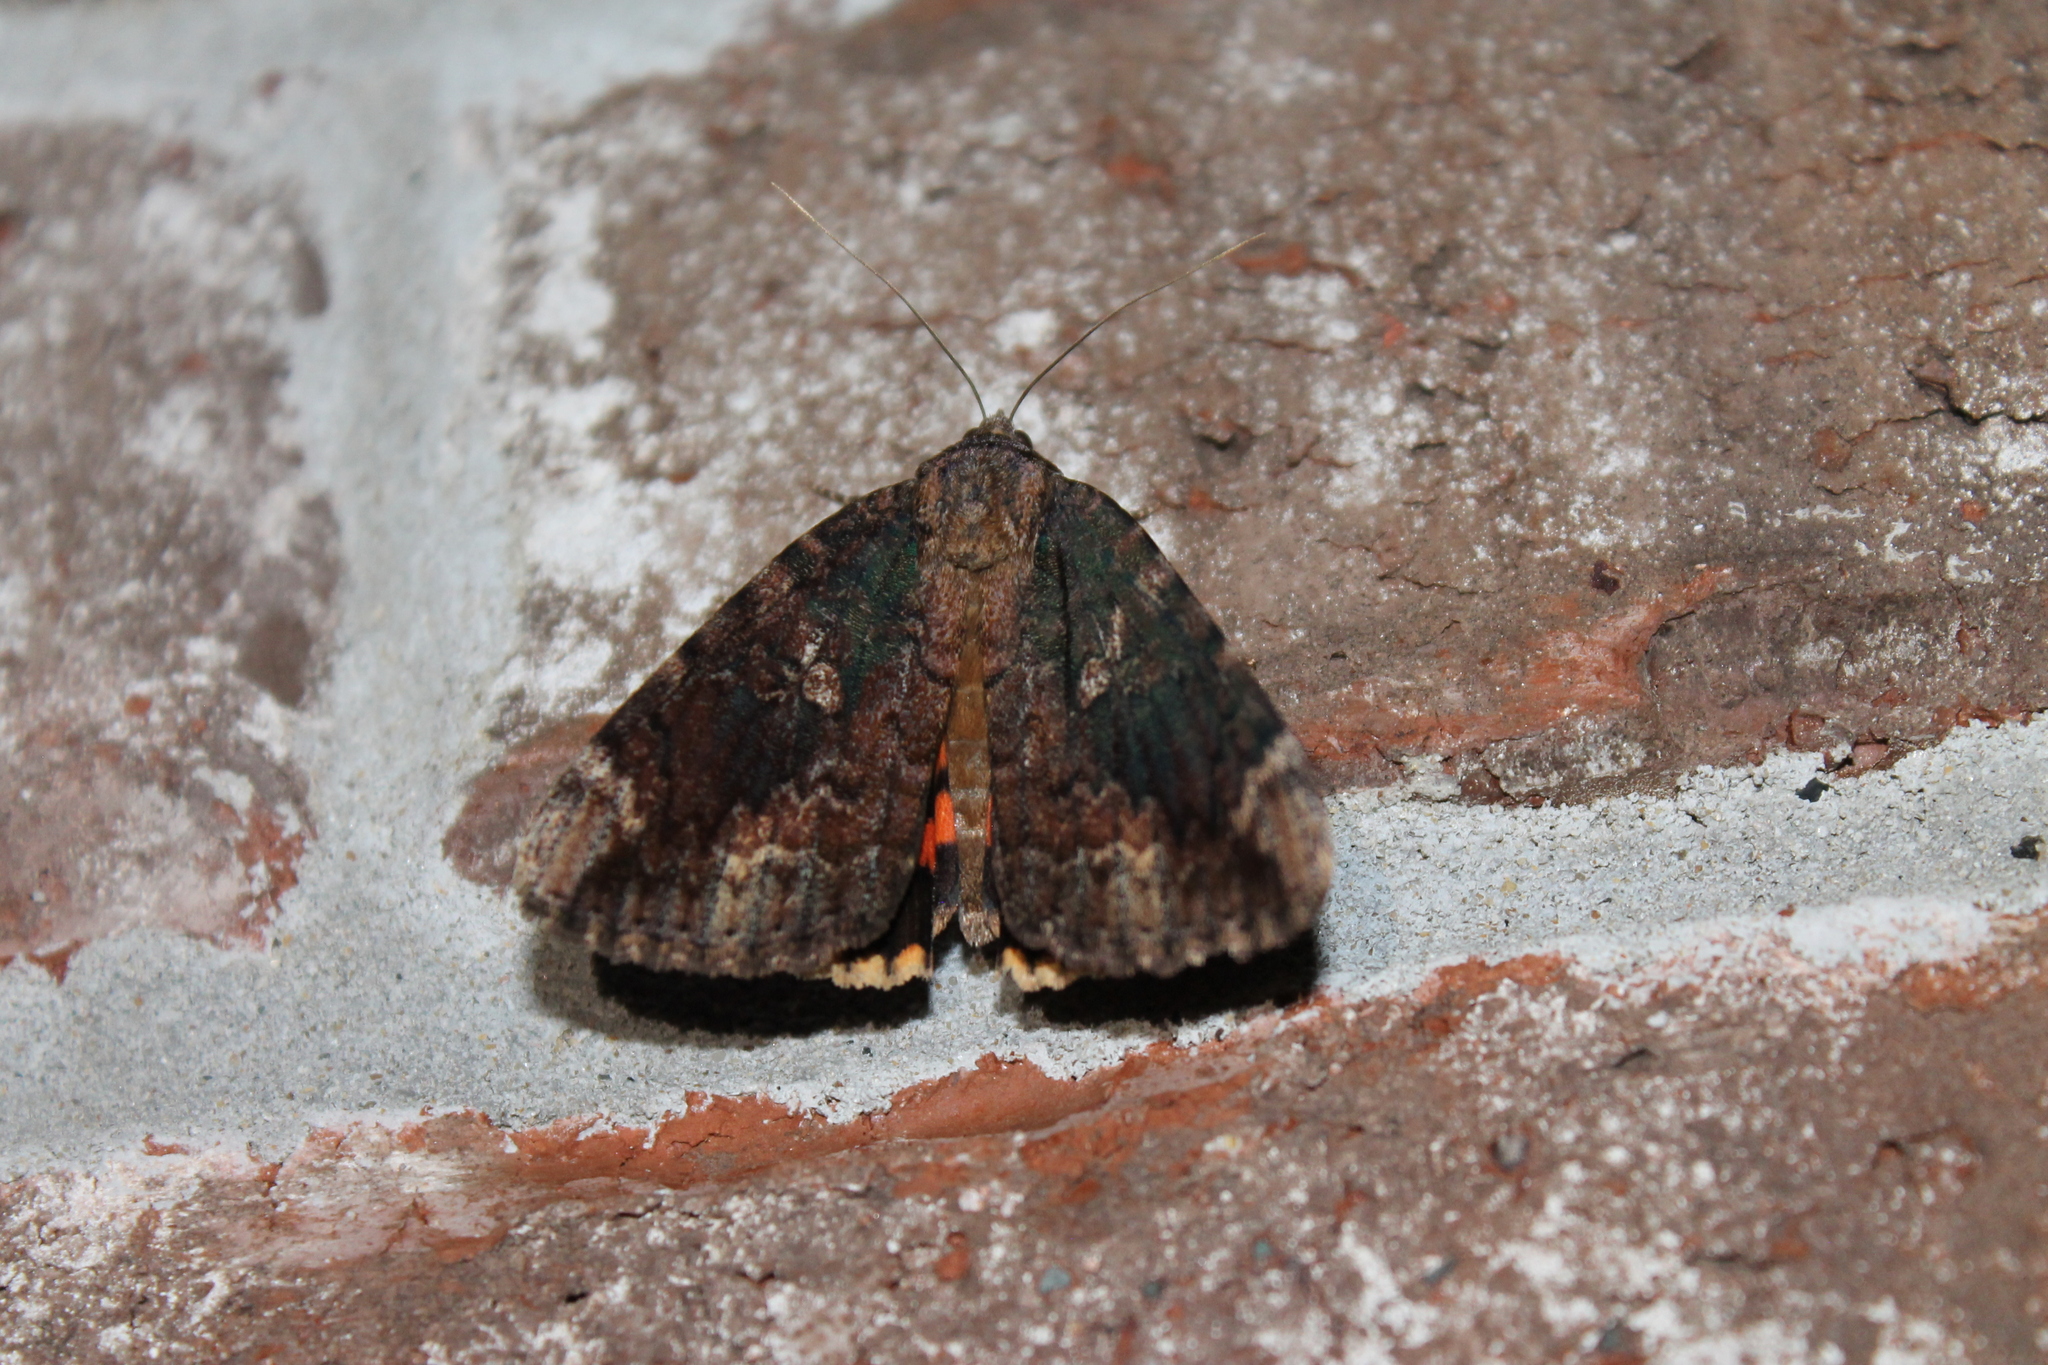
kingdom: Animalia
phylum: Arthropoda
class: Insecta
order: Lepidoptera
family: Erebidae
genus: Catocala
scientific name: Catocala innubens
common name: Betrothed underwing
